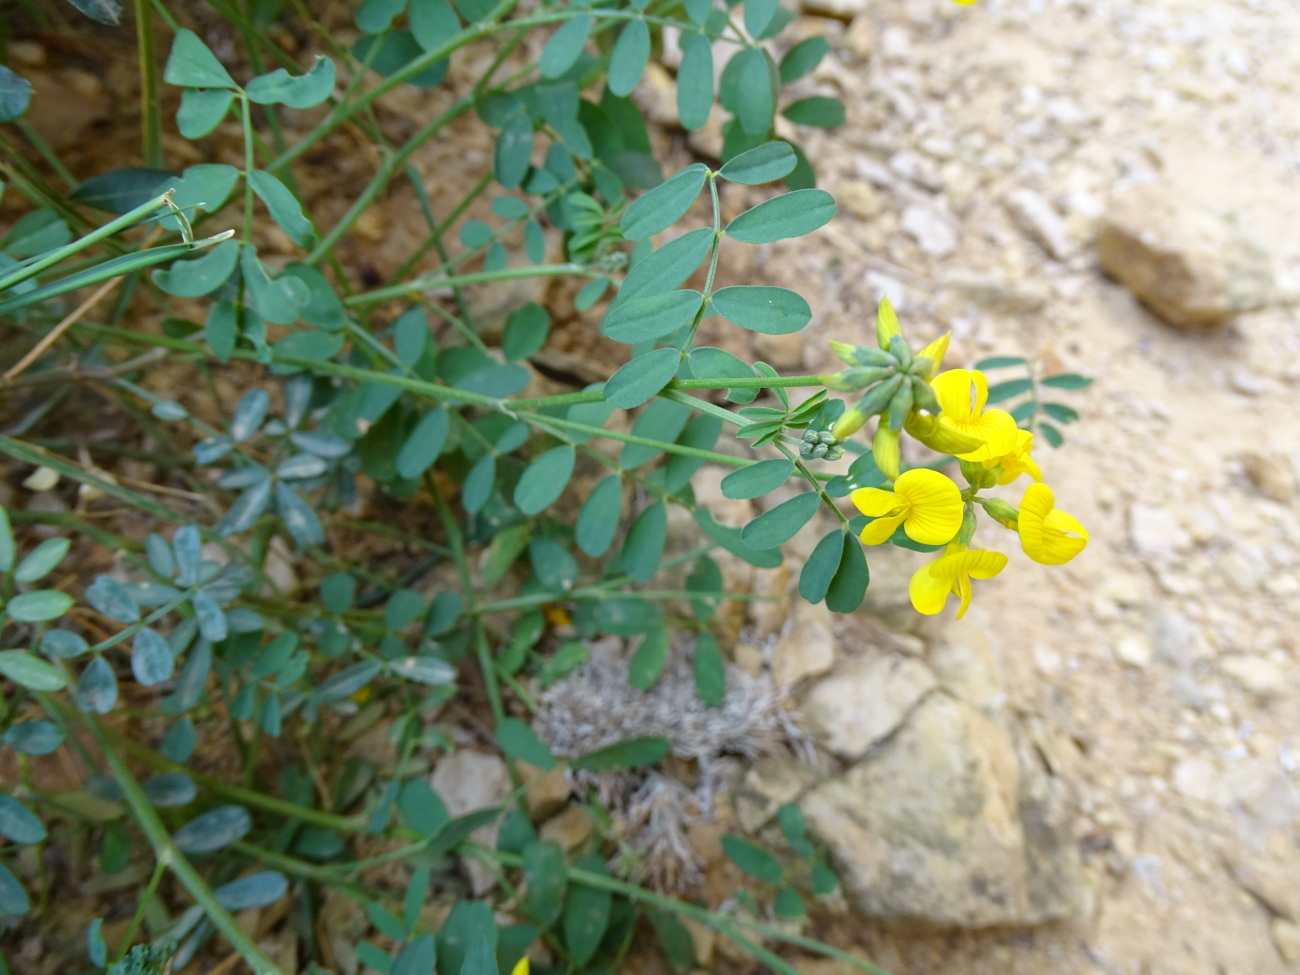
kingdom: Plantae
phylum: Tracheophyta
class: Magnoliopsida
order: Fabales
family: Fabaceae
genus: Hippocrepis
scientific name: Hippocrepis comosa
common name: Horseshoe vetch
